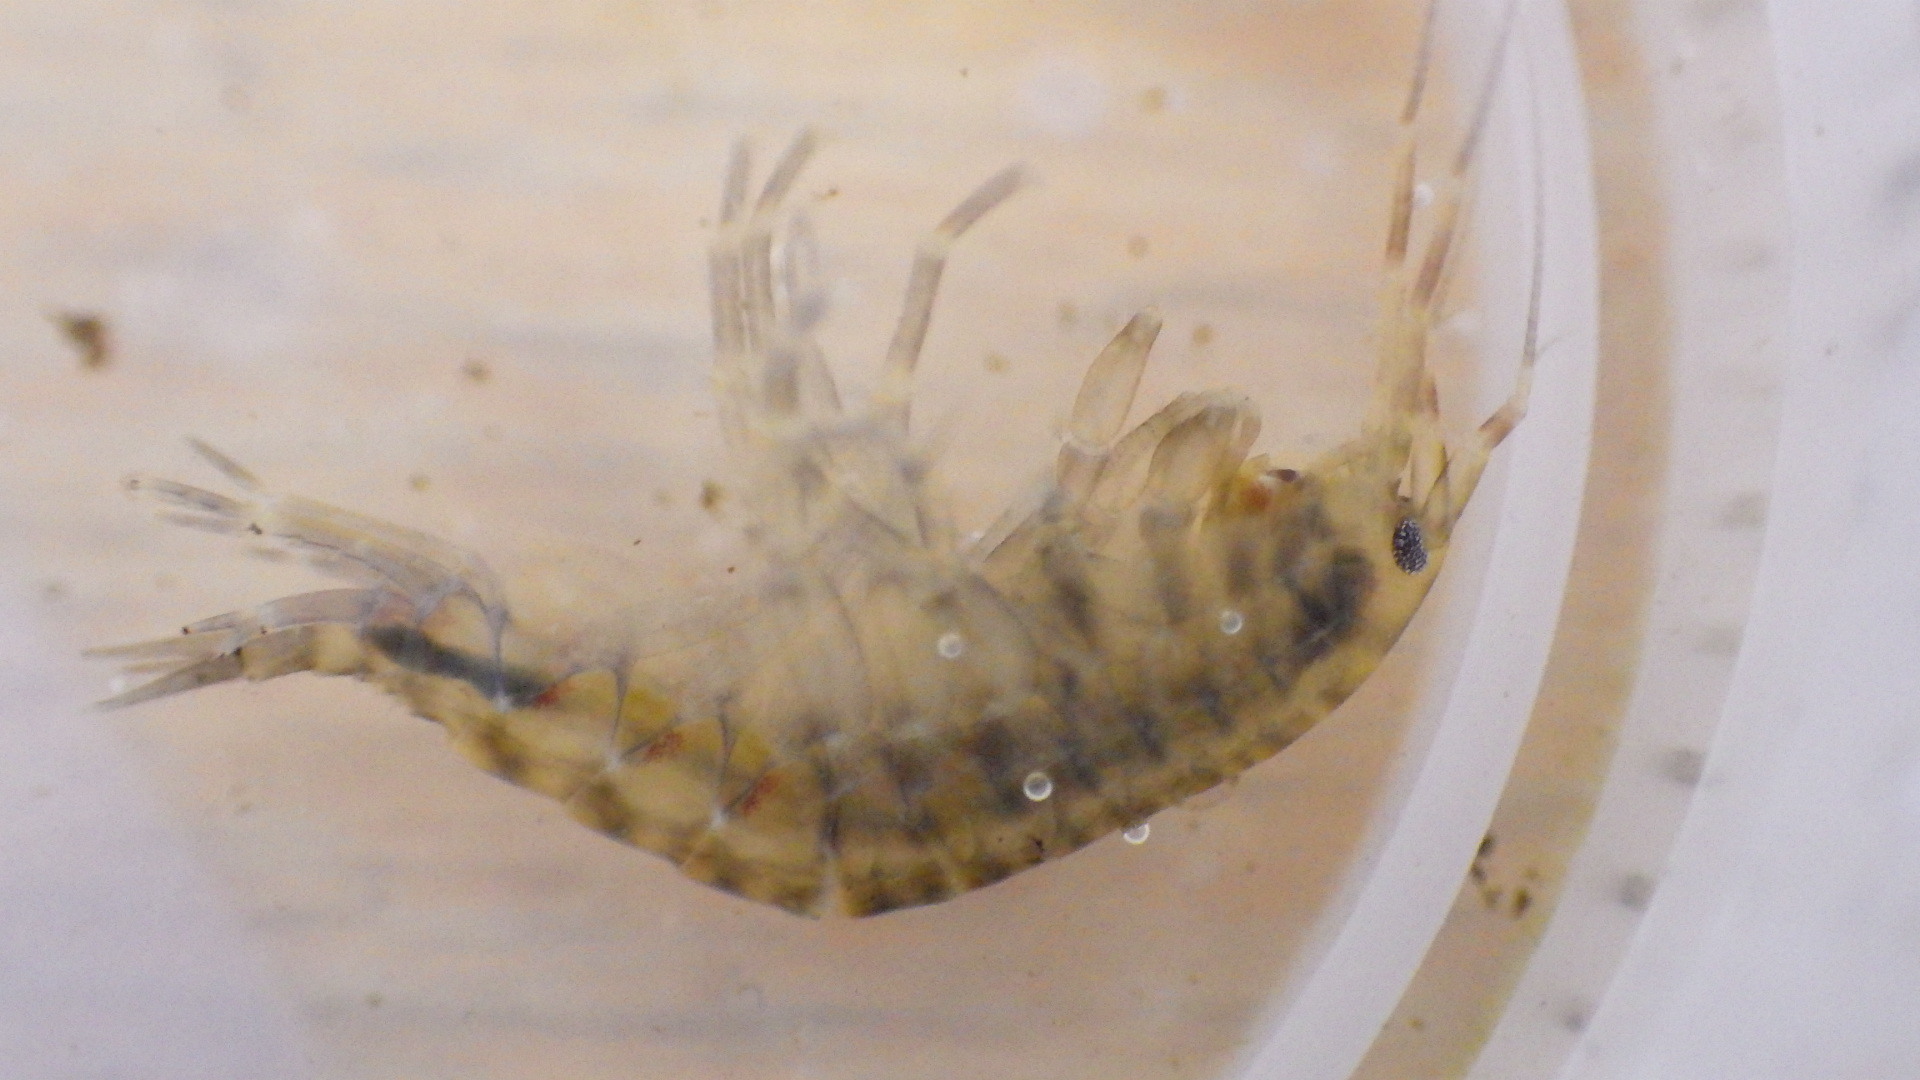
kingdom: Animalia
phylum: Arthropoda
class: Malacostraca
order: Amphipoda
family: Gammaridae
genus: Gammarus
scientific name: Gammarus fasciatus
